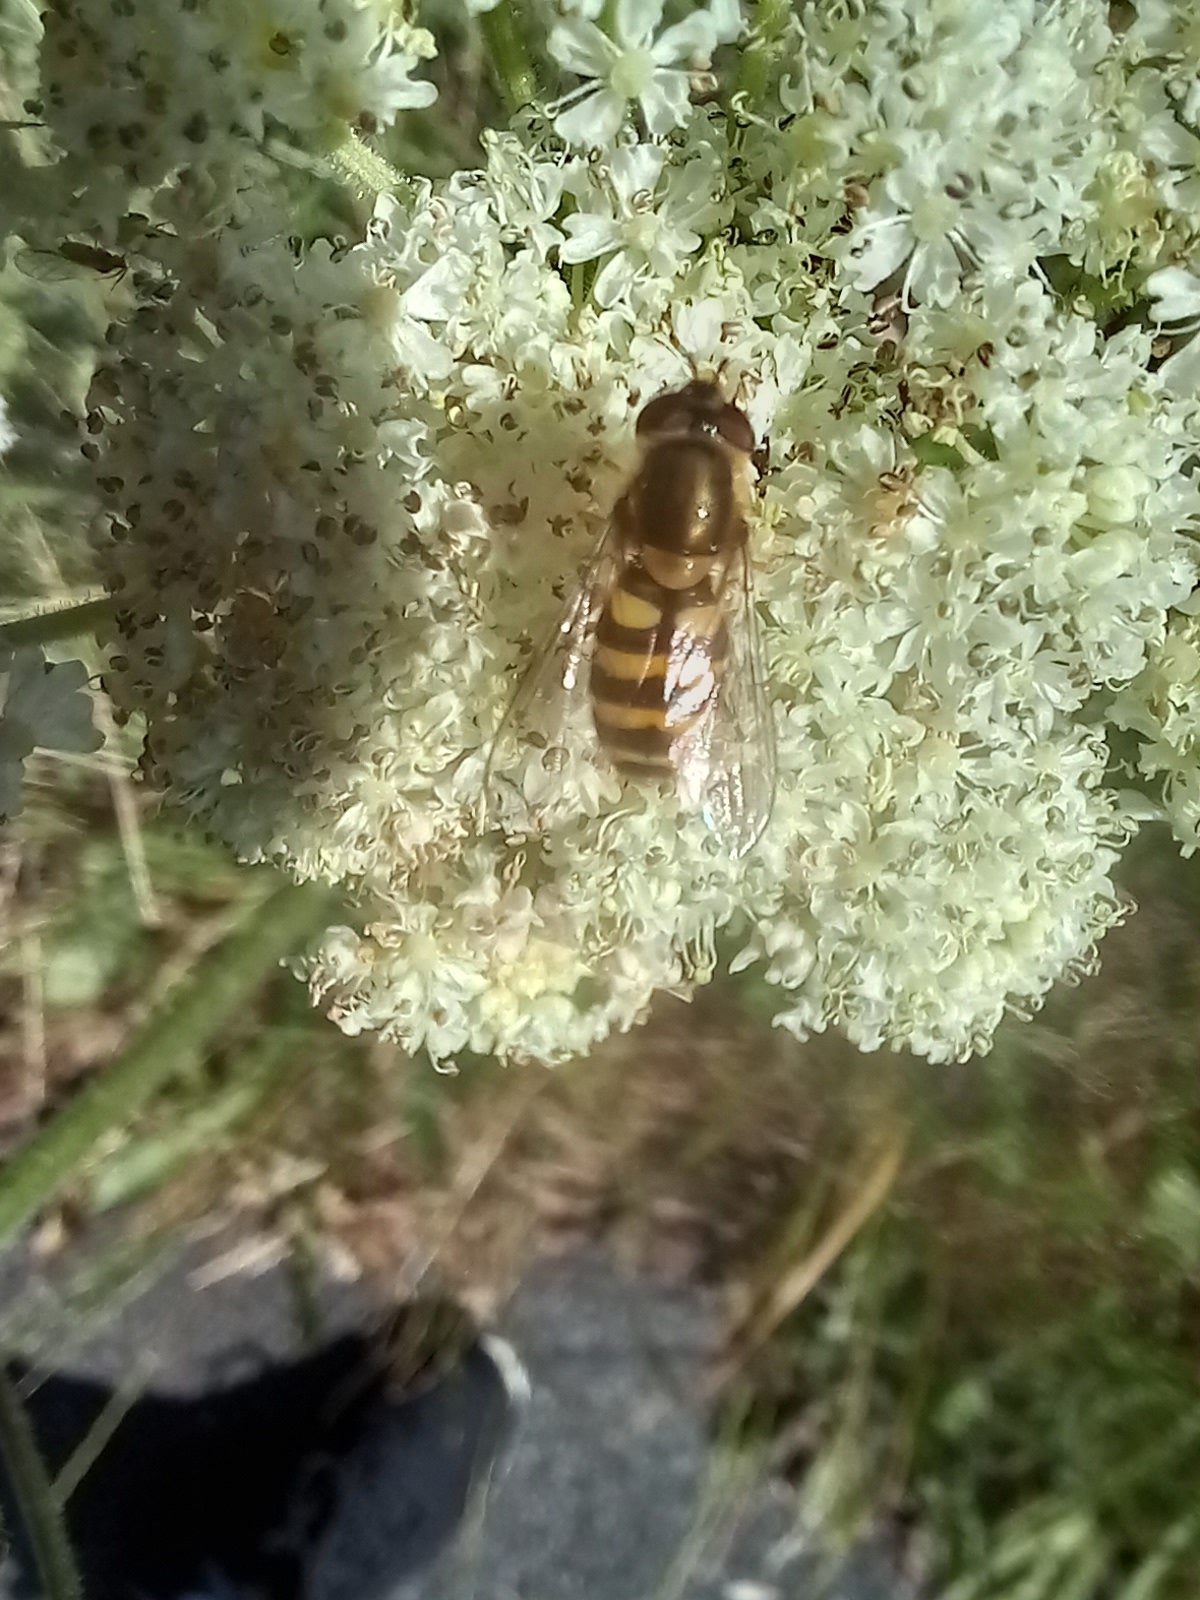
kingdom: Animalia
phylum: Arthropoda
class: Insecta
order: Diptera
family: Syrphidae
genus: Syrphus
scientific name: Syrphus
